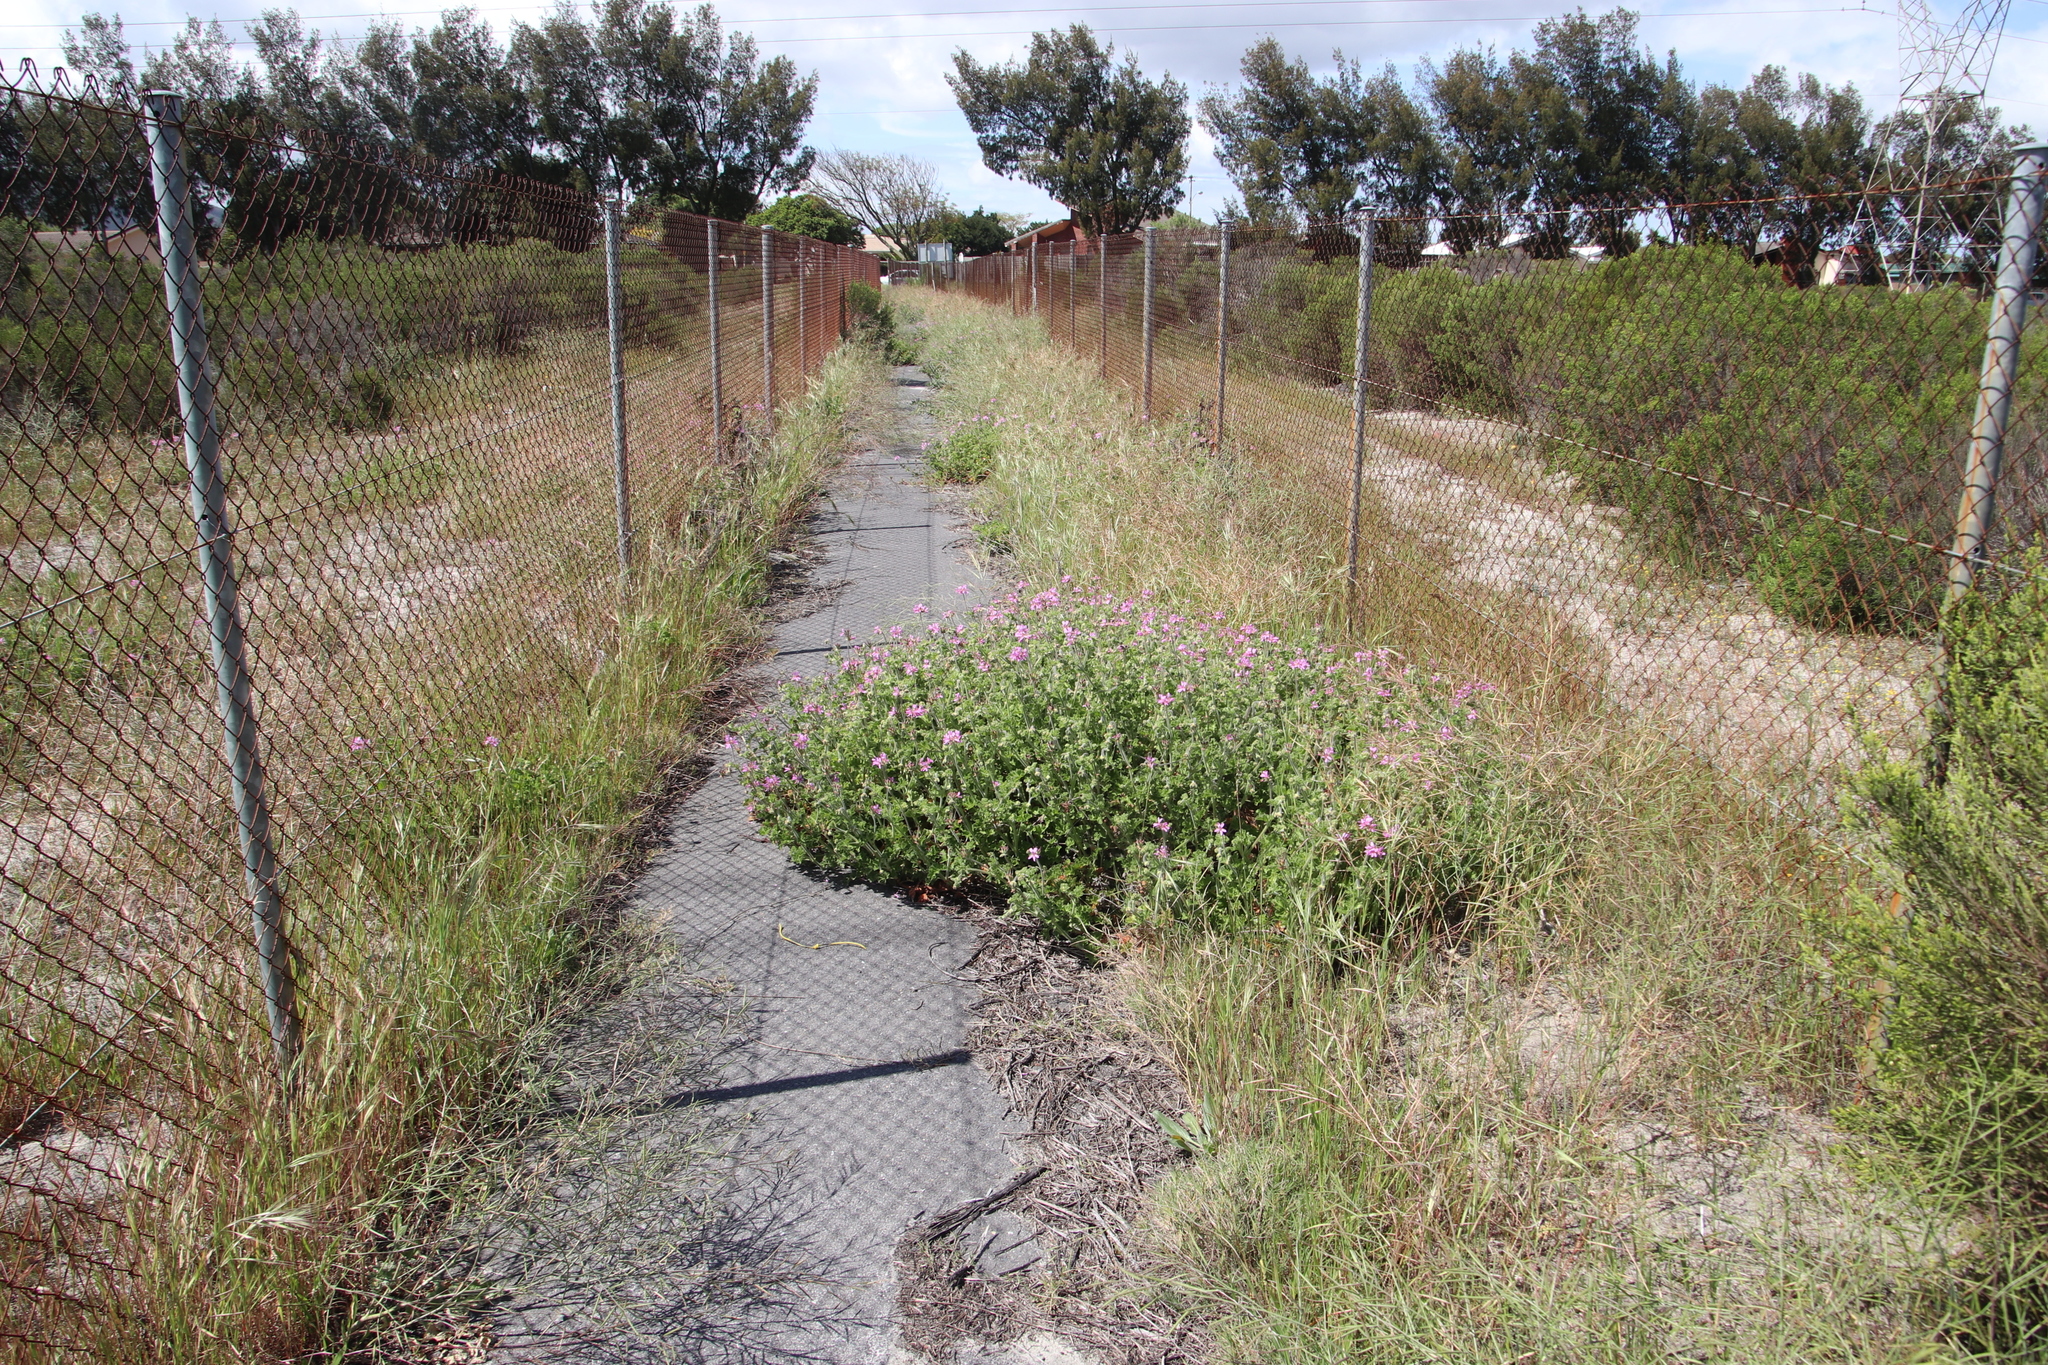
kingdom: Plantae
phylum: Tracheophyta
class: Magnoliopsida
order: Geraniales
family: Geraniaceae
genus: Pelargonium
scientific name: Pelargonium capitatum
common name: Rose scented geranium
